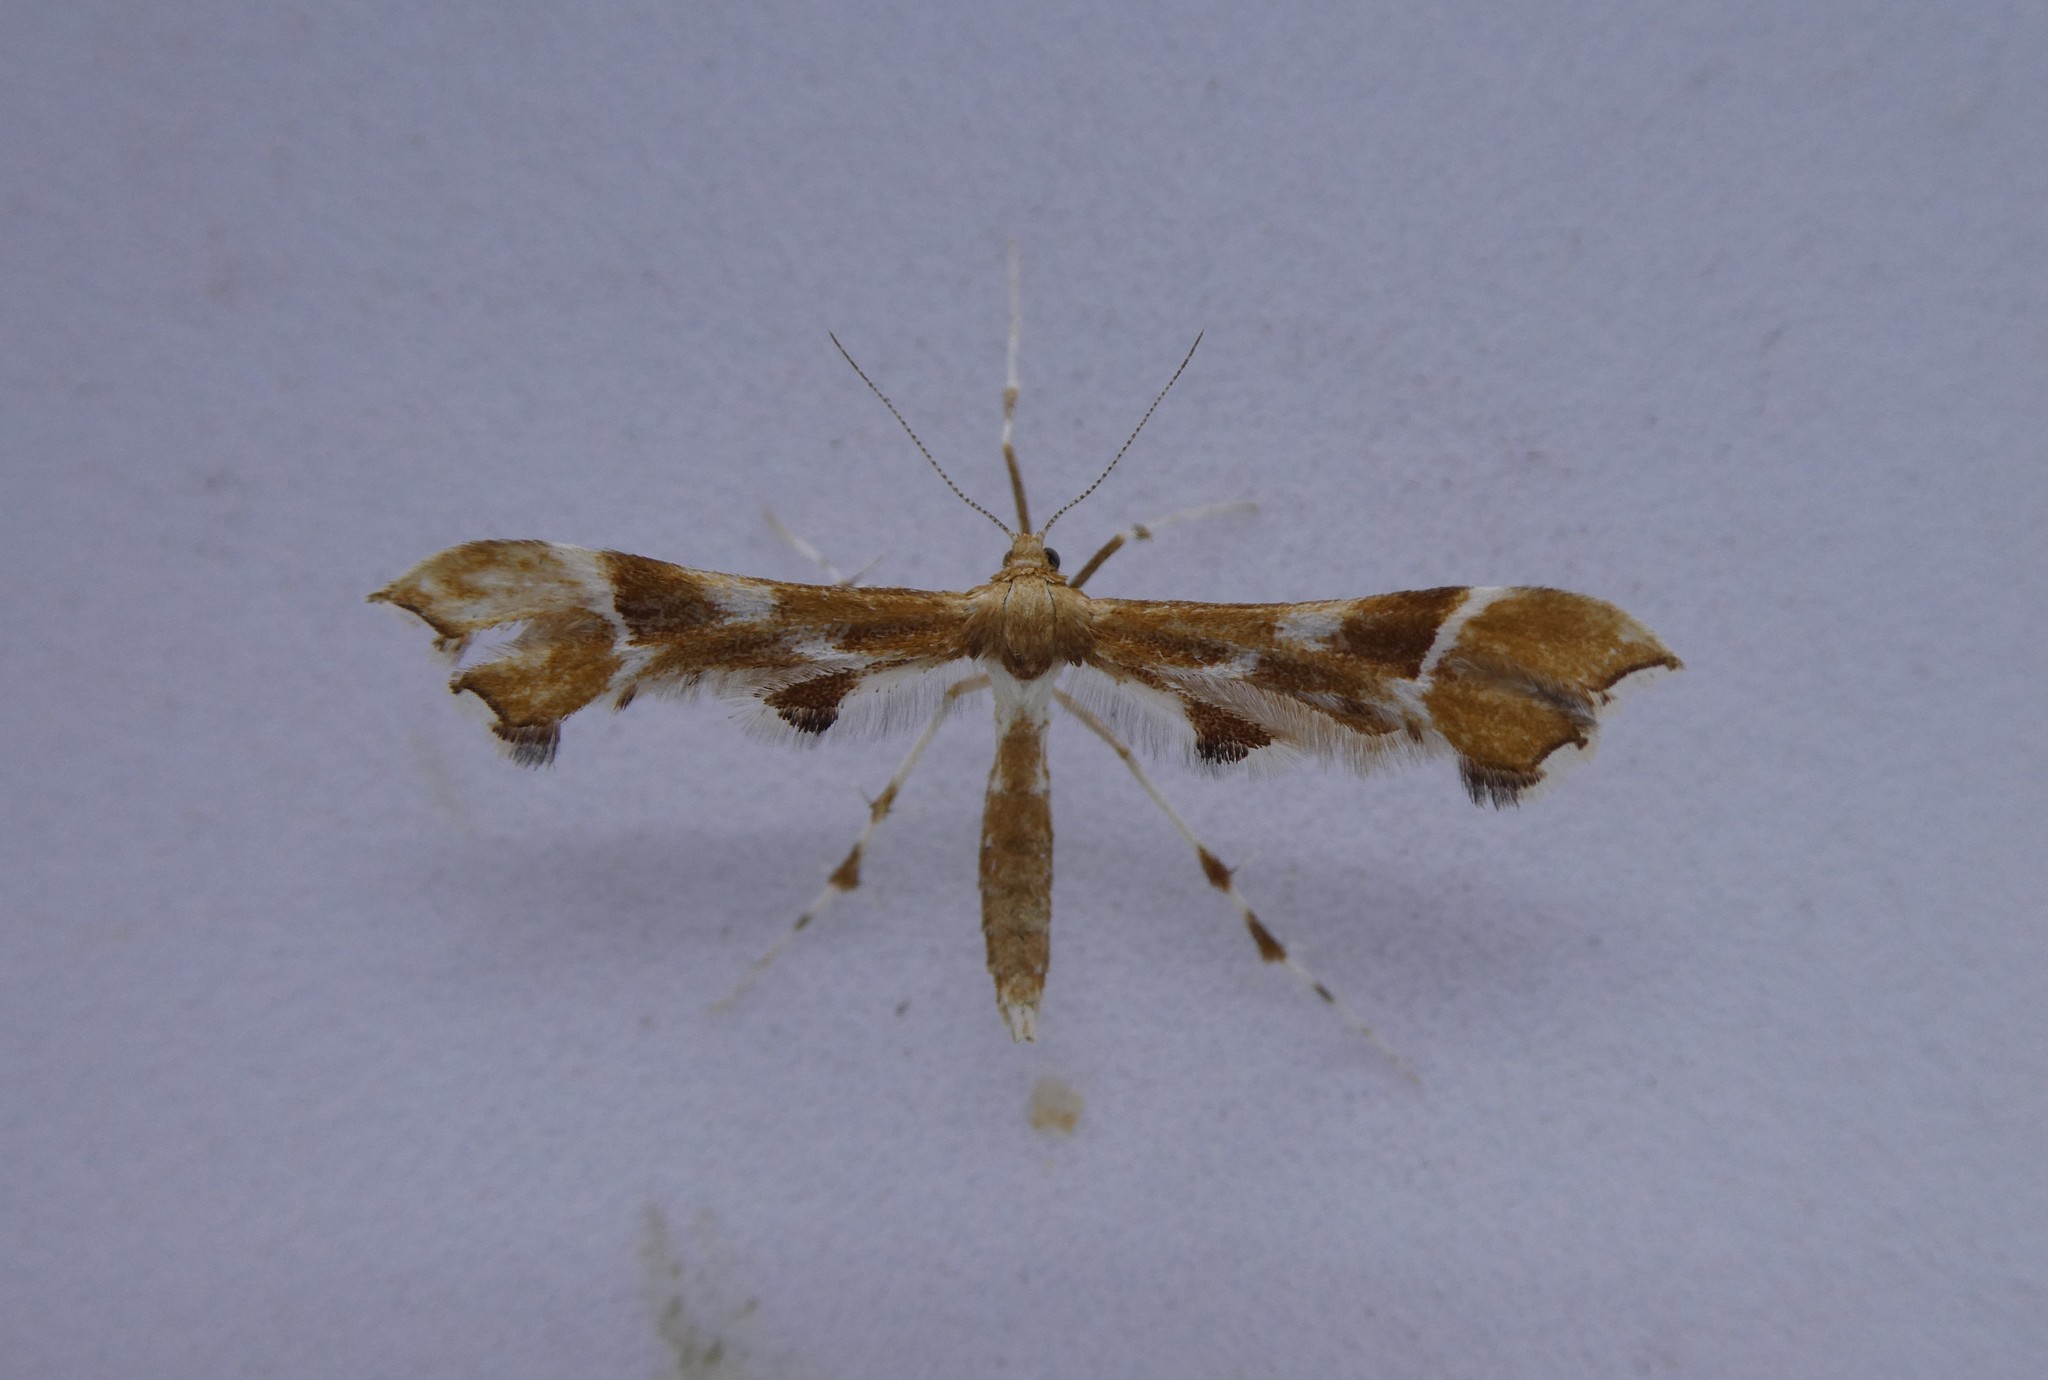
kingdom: Animalia
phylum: Arthropoda
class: Insecta
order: Lepidoptera
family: Pterophoridae
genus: Cnaemidophorus
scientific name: Cnaemidophorus rhododactyla
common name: Rose plume
